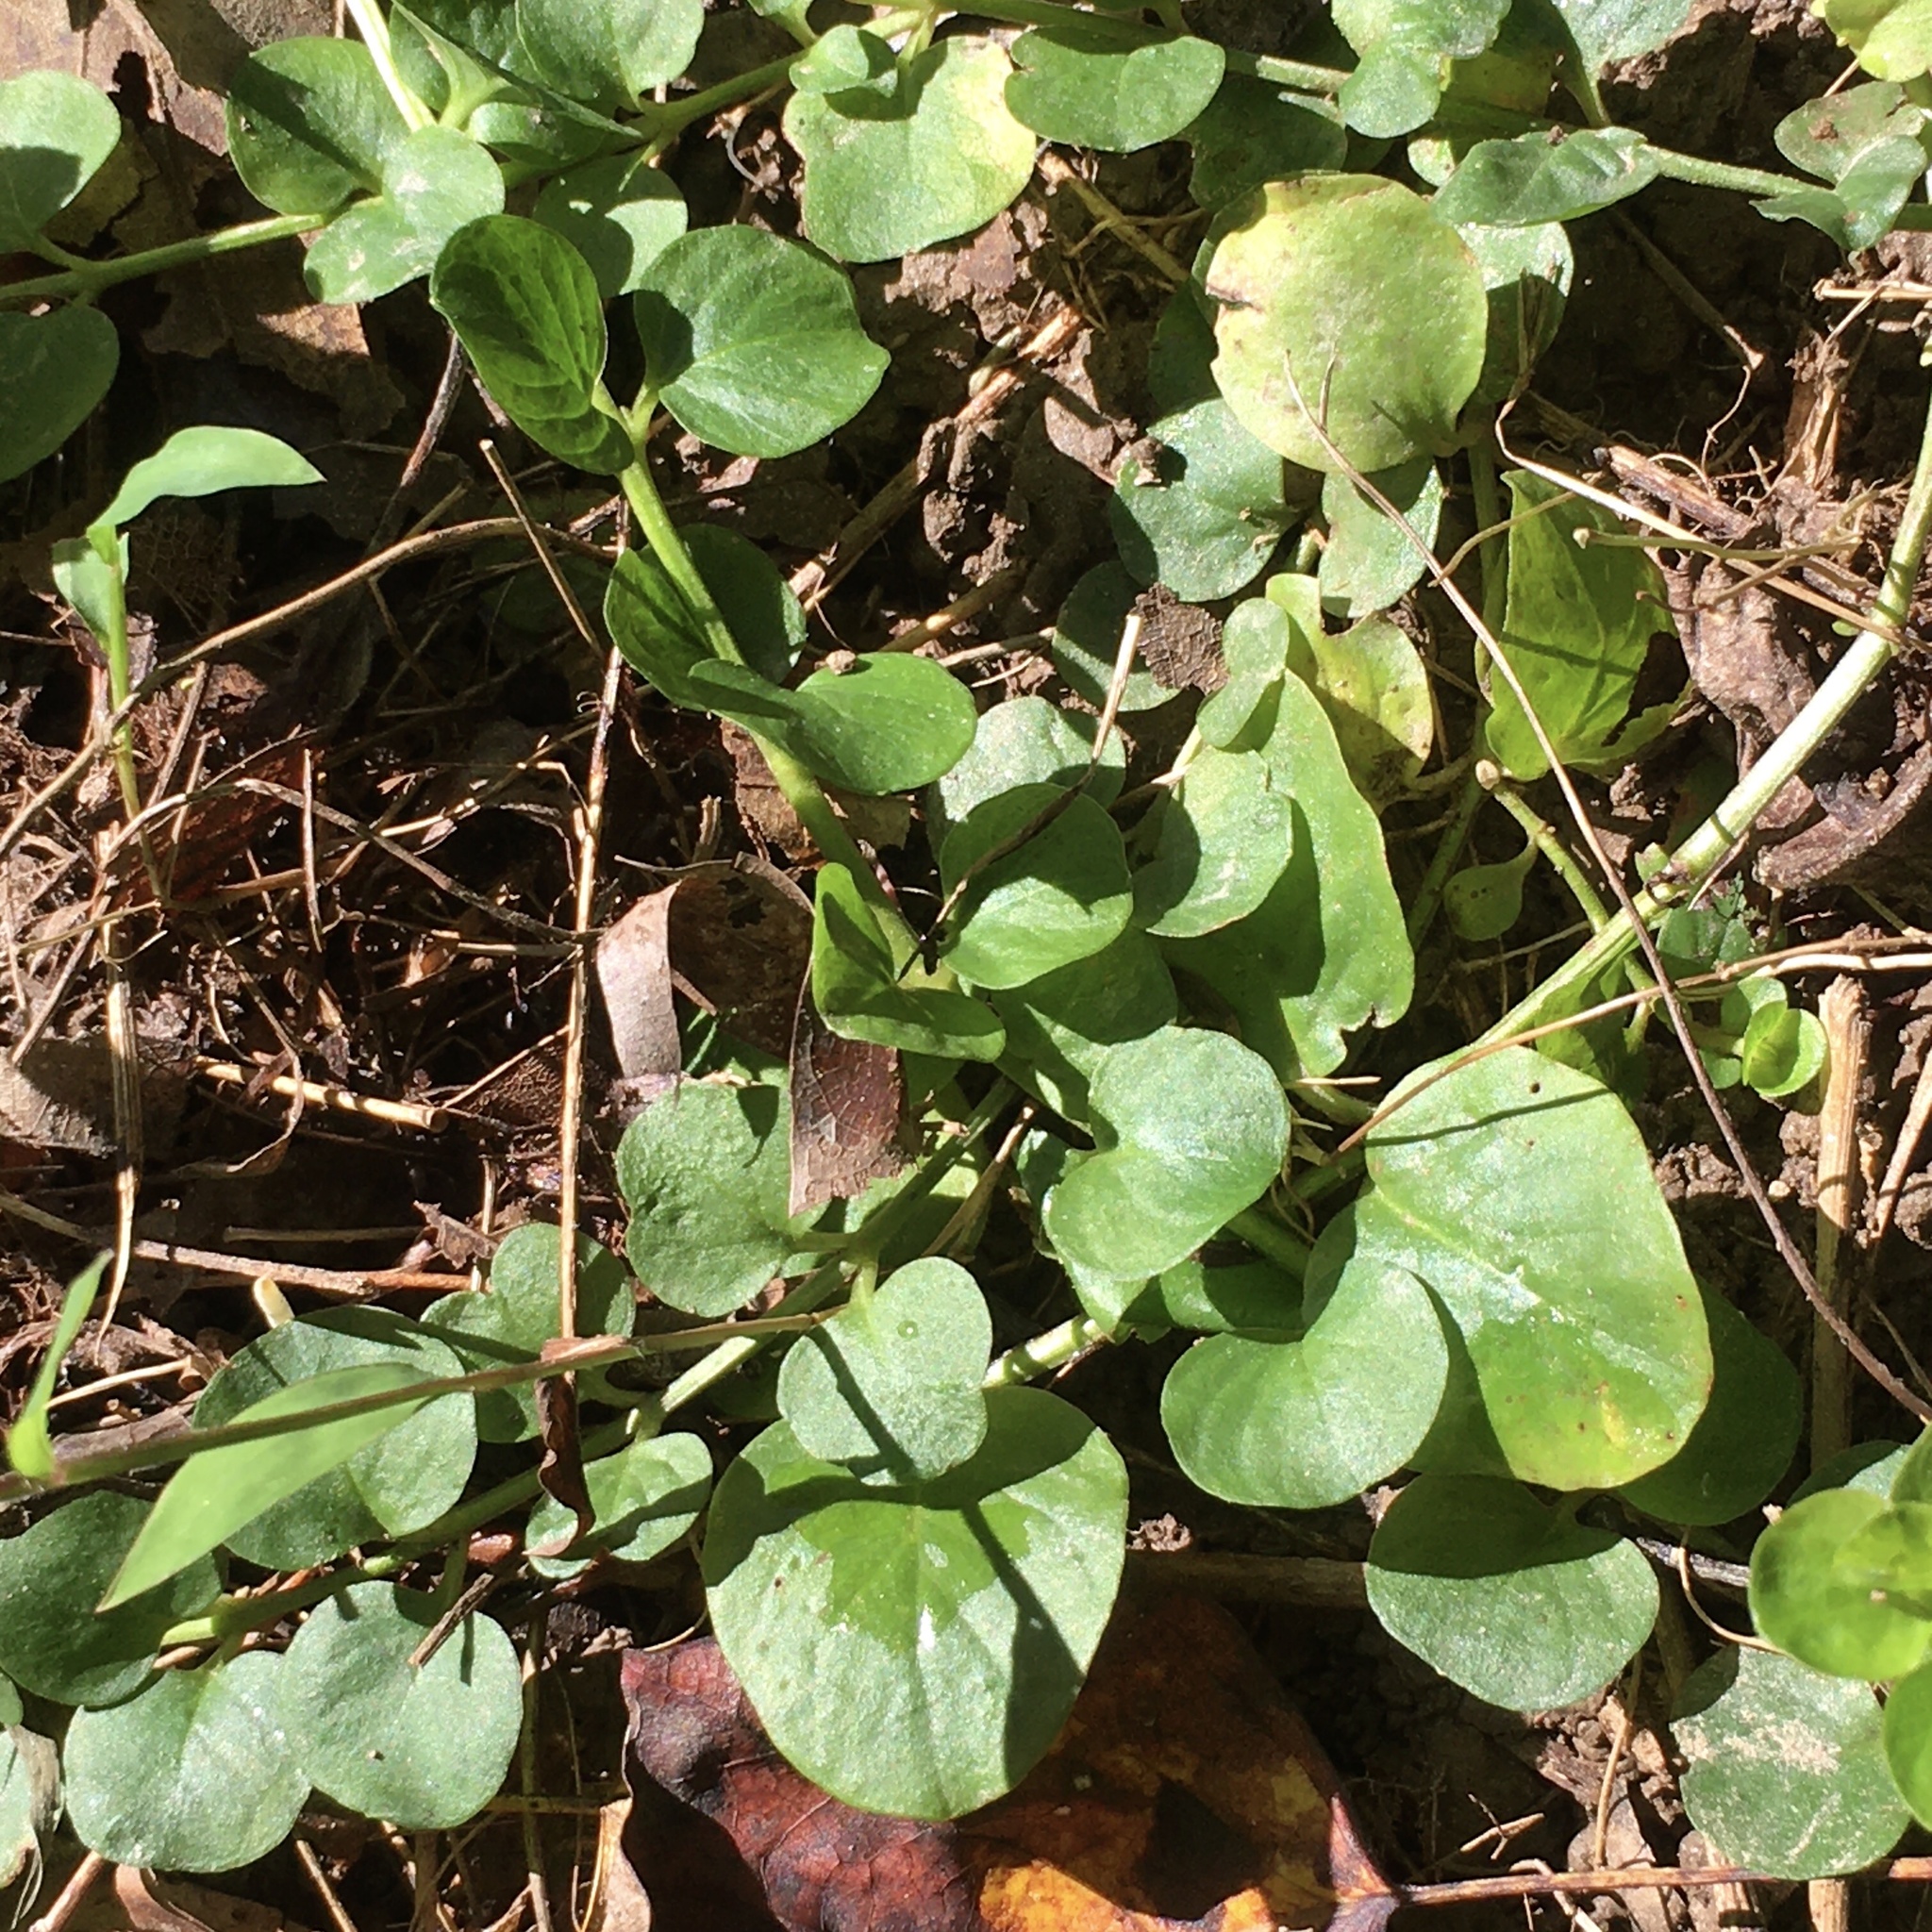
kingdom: Plantae
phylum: Tracheophyta
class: Magnoliopsida
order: Ericales
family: Primulaceae
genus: Lysimachia
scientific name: Lysimachia nummularia
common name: Moneywort
